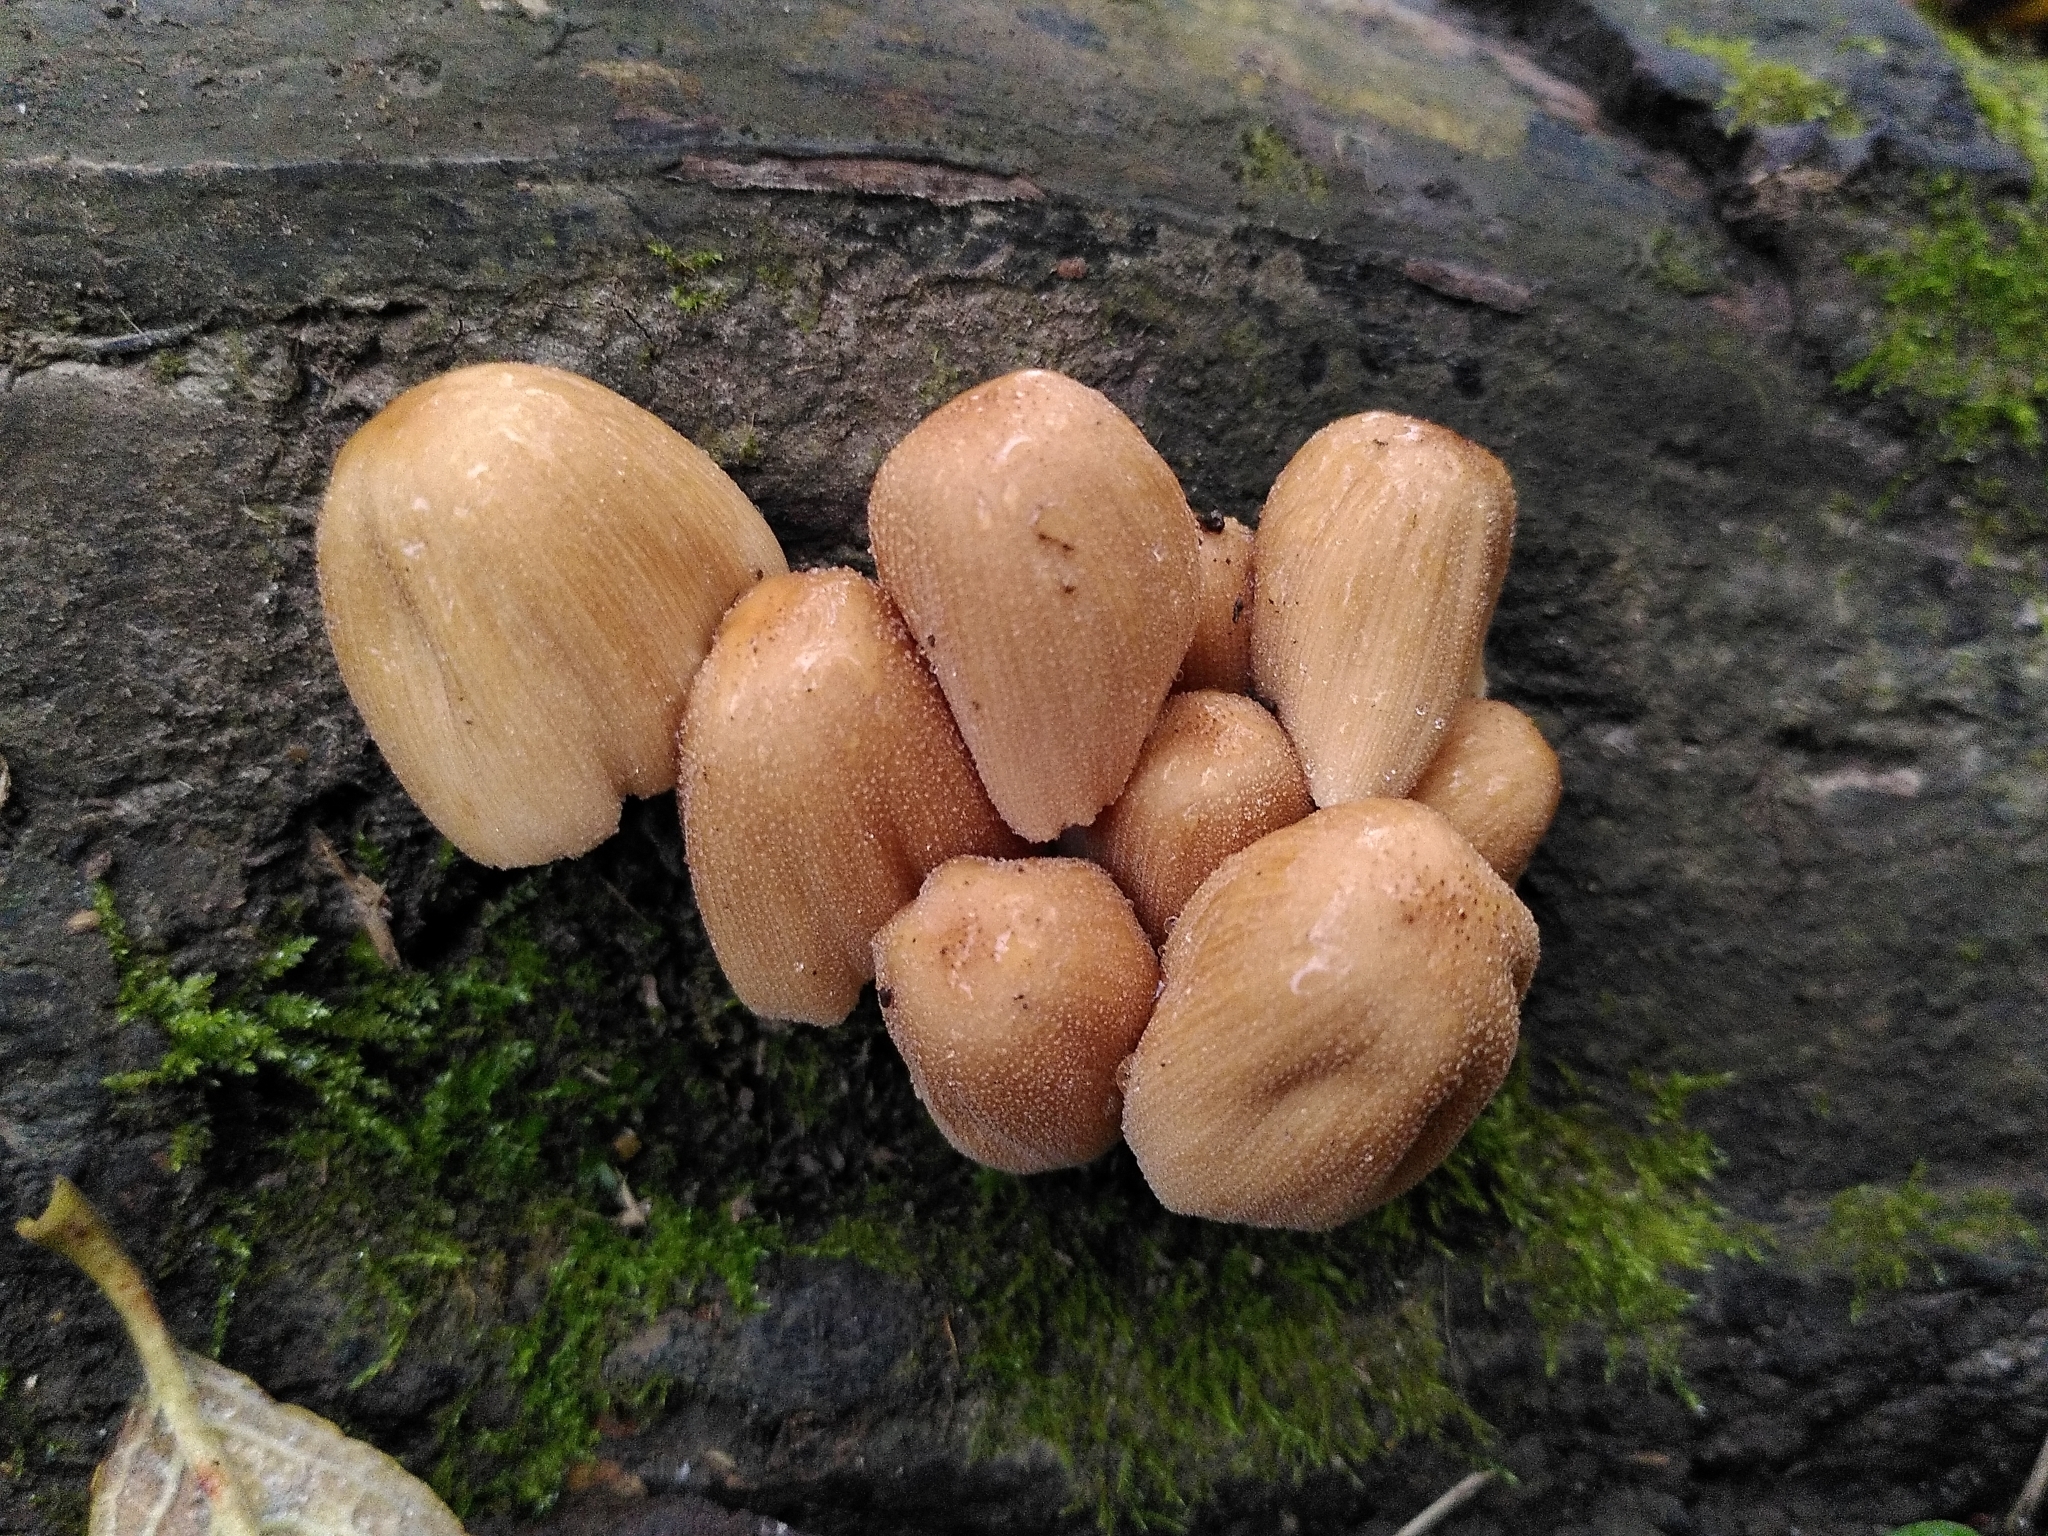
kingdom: Fungi
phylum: Basidiomycota
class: Agaricomycetes
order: Agaricales
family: Psathyrellaceae
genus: Coprinellus
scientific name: Coprinellus micaceus
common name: Glistening ink-cap
